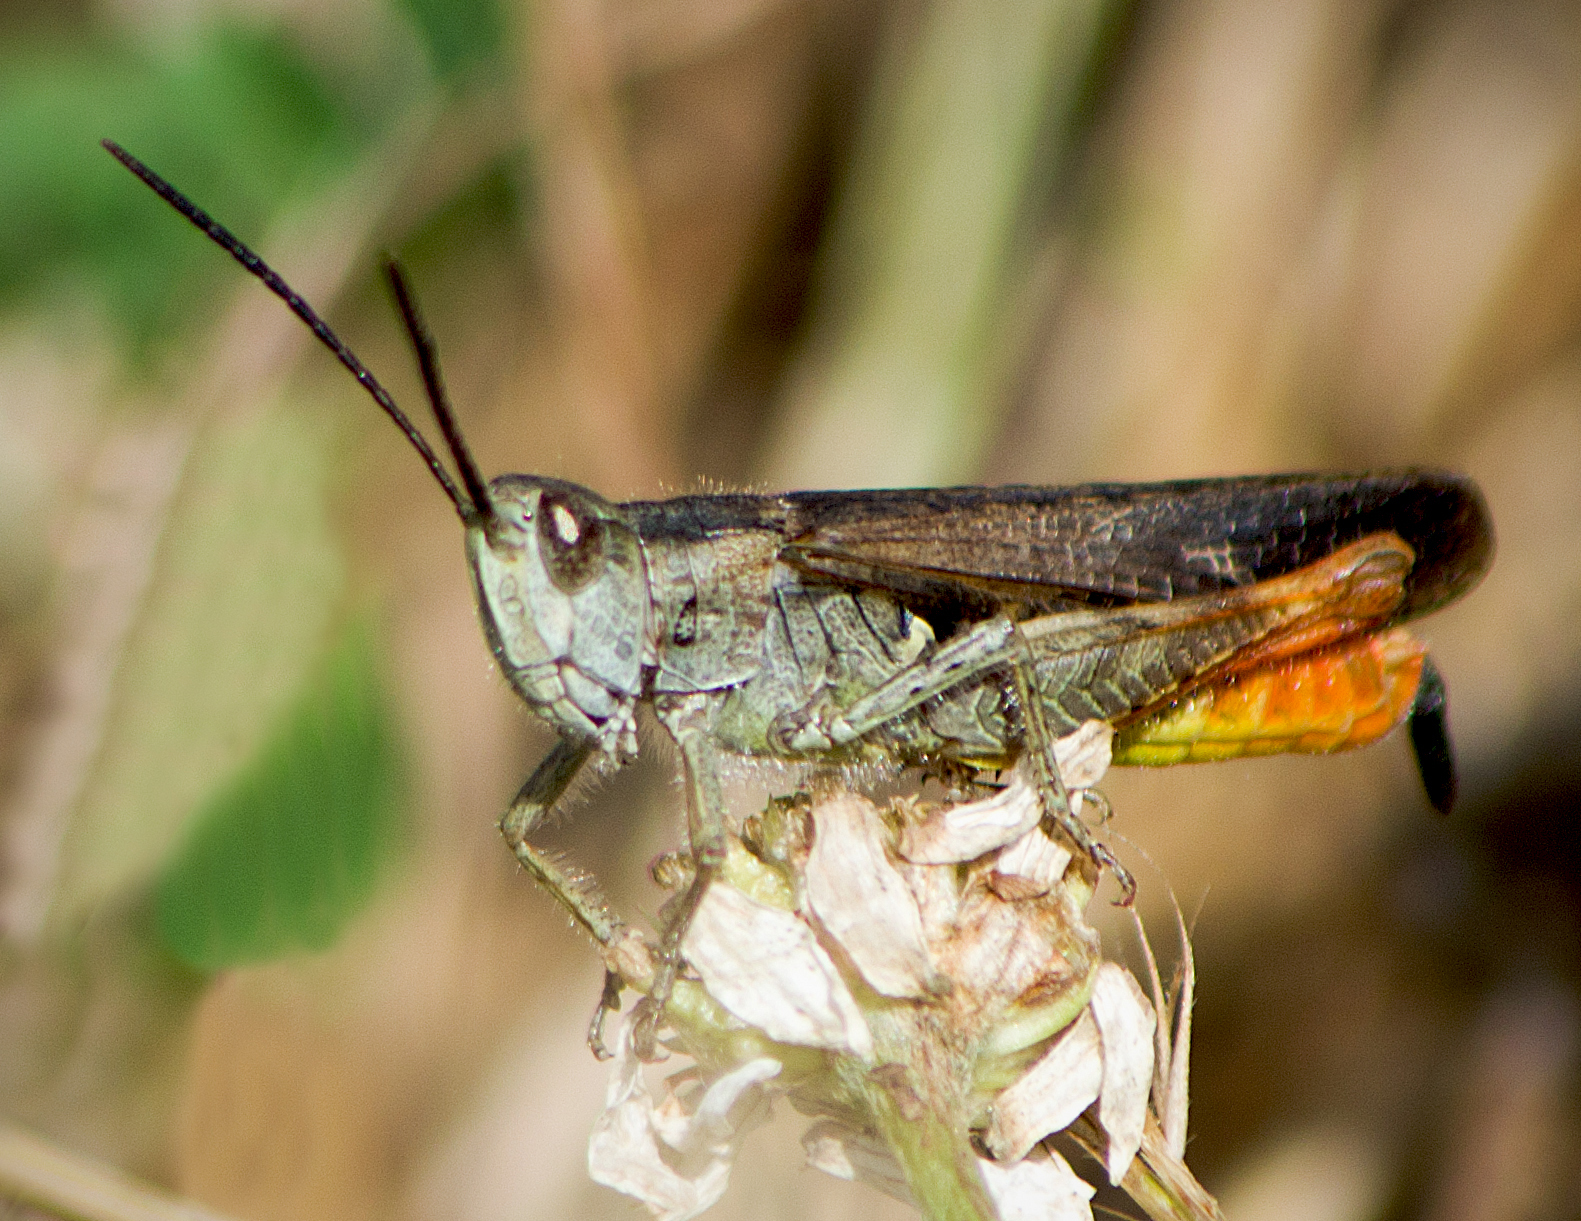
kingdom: Animalia
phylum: Arthropoda
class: Insecta
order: Orthoptera
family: Acrididae
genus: Chorthippus
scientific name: Chorthippus maritimus
